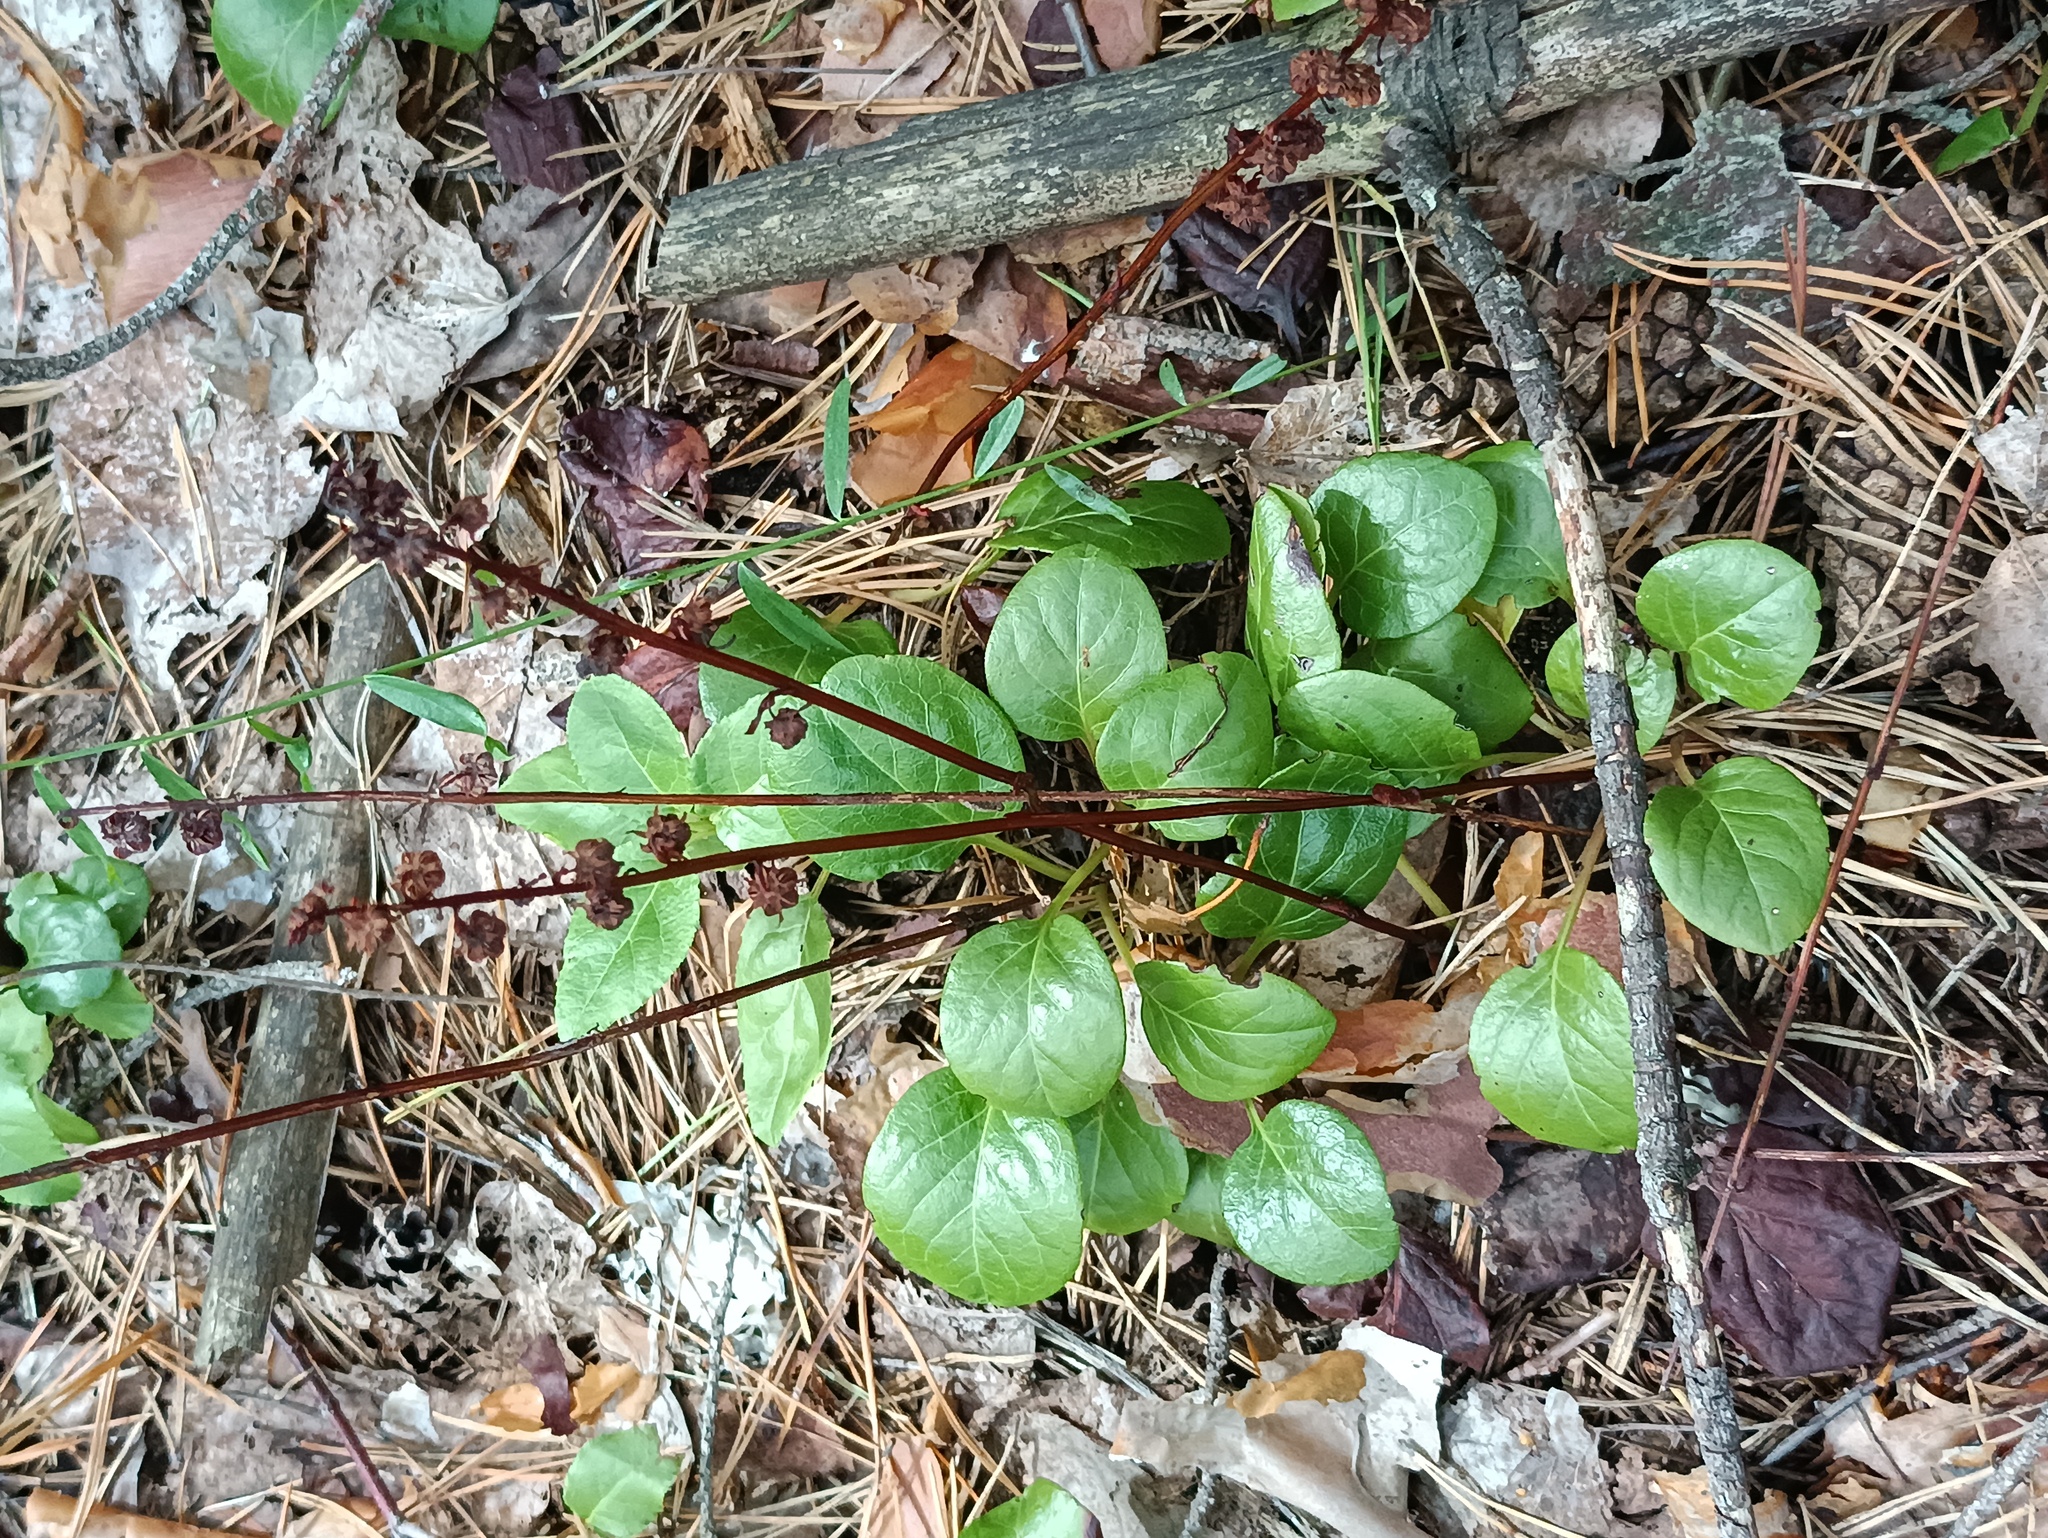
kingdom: Plantae
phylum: Tracheophyta
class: Magnoliopsida
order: Ericales
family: Ericaceae
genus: Pyrola
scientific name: Pyrola rotundifolia
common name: Round-leaved wintergreen
